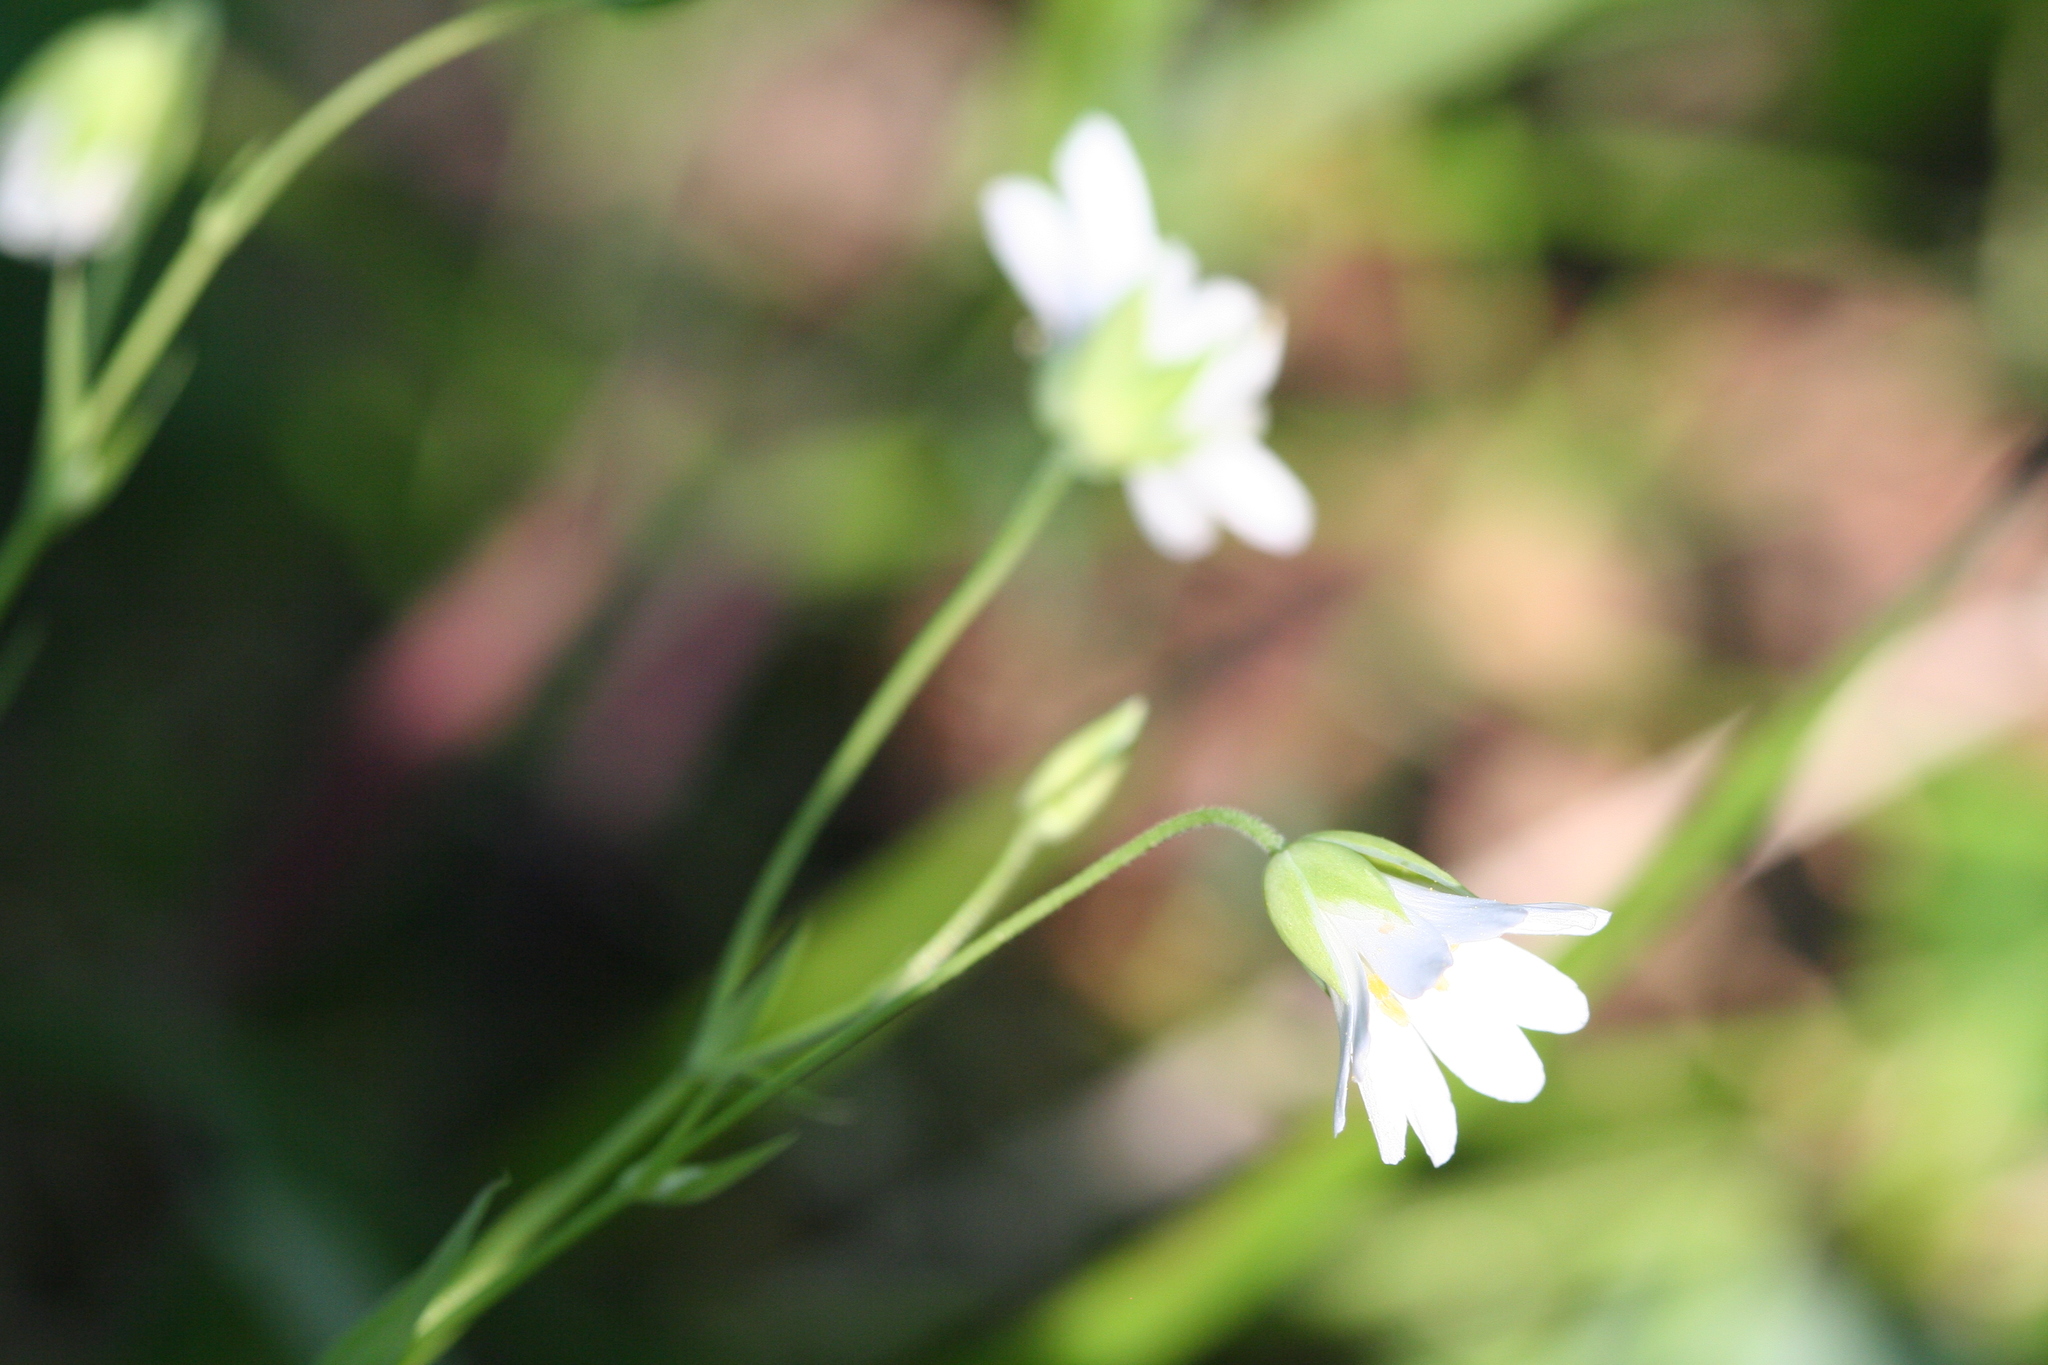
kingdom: Plantae
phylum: Tracheophyta
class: Magnoliopsida
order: Caryophyllales
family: Caryophyllaceae
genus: Rabelera
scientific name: Rabelera holostea
